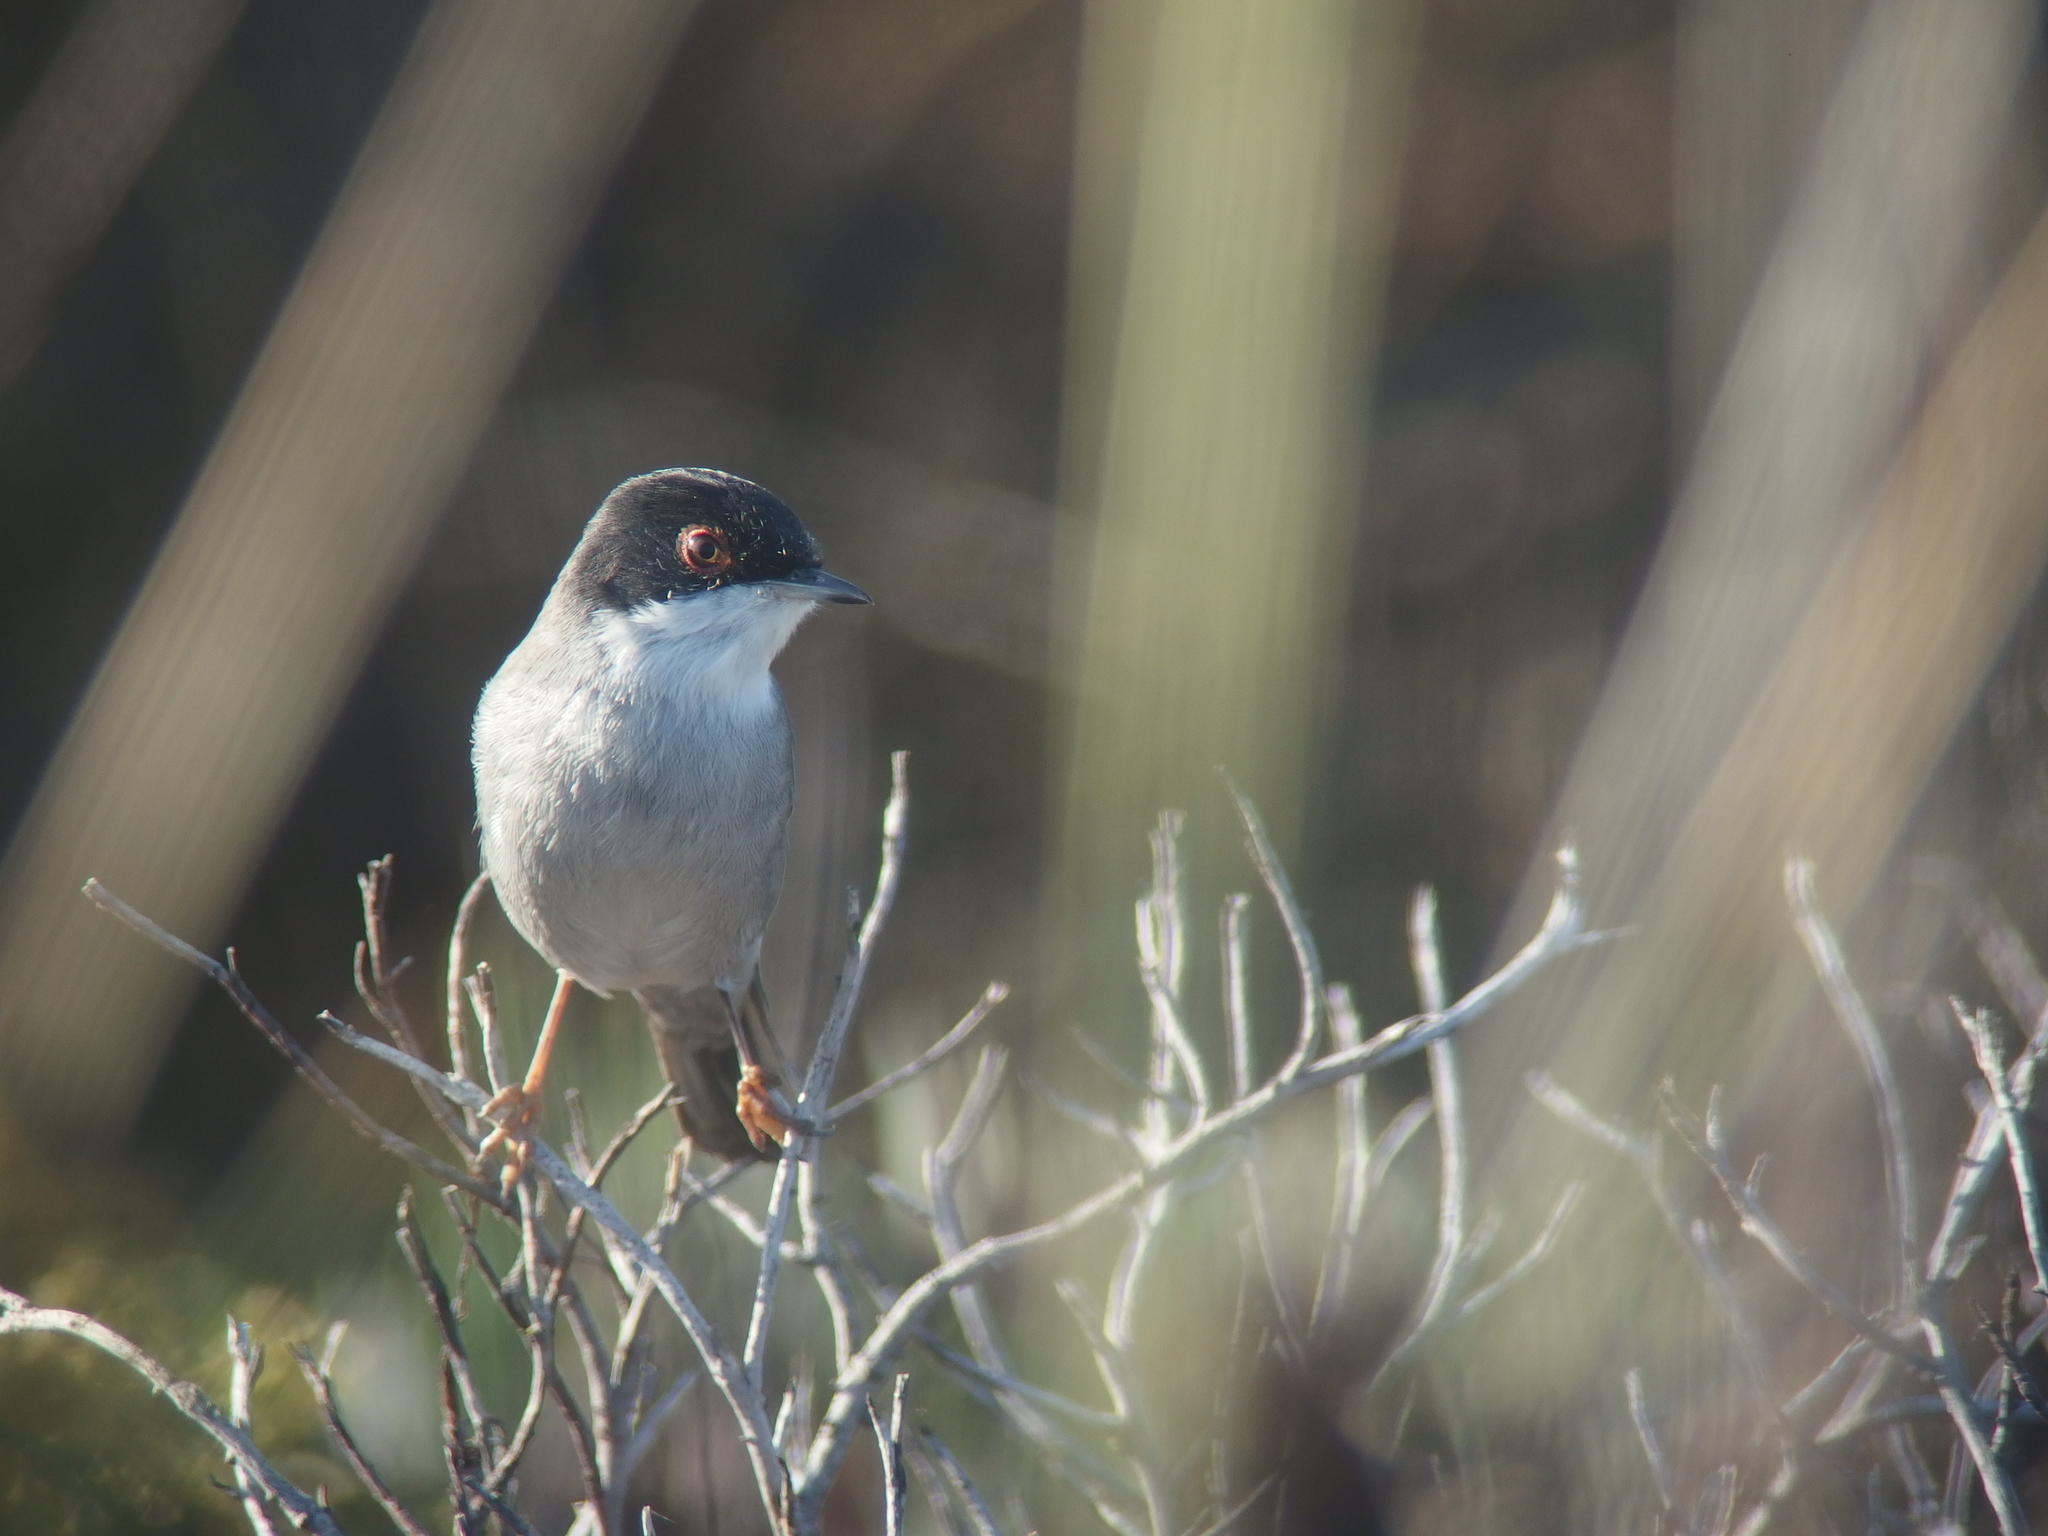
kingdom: Animalia
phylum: Chordata
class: Aves
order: Passeriformes
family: Sylviidae
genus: Curruca
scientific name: Curruca melanocephala
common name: Sardinian warbler
